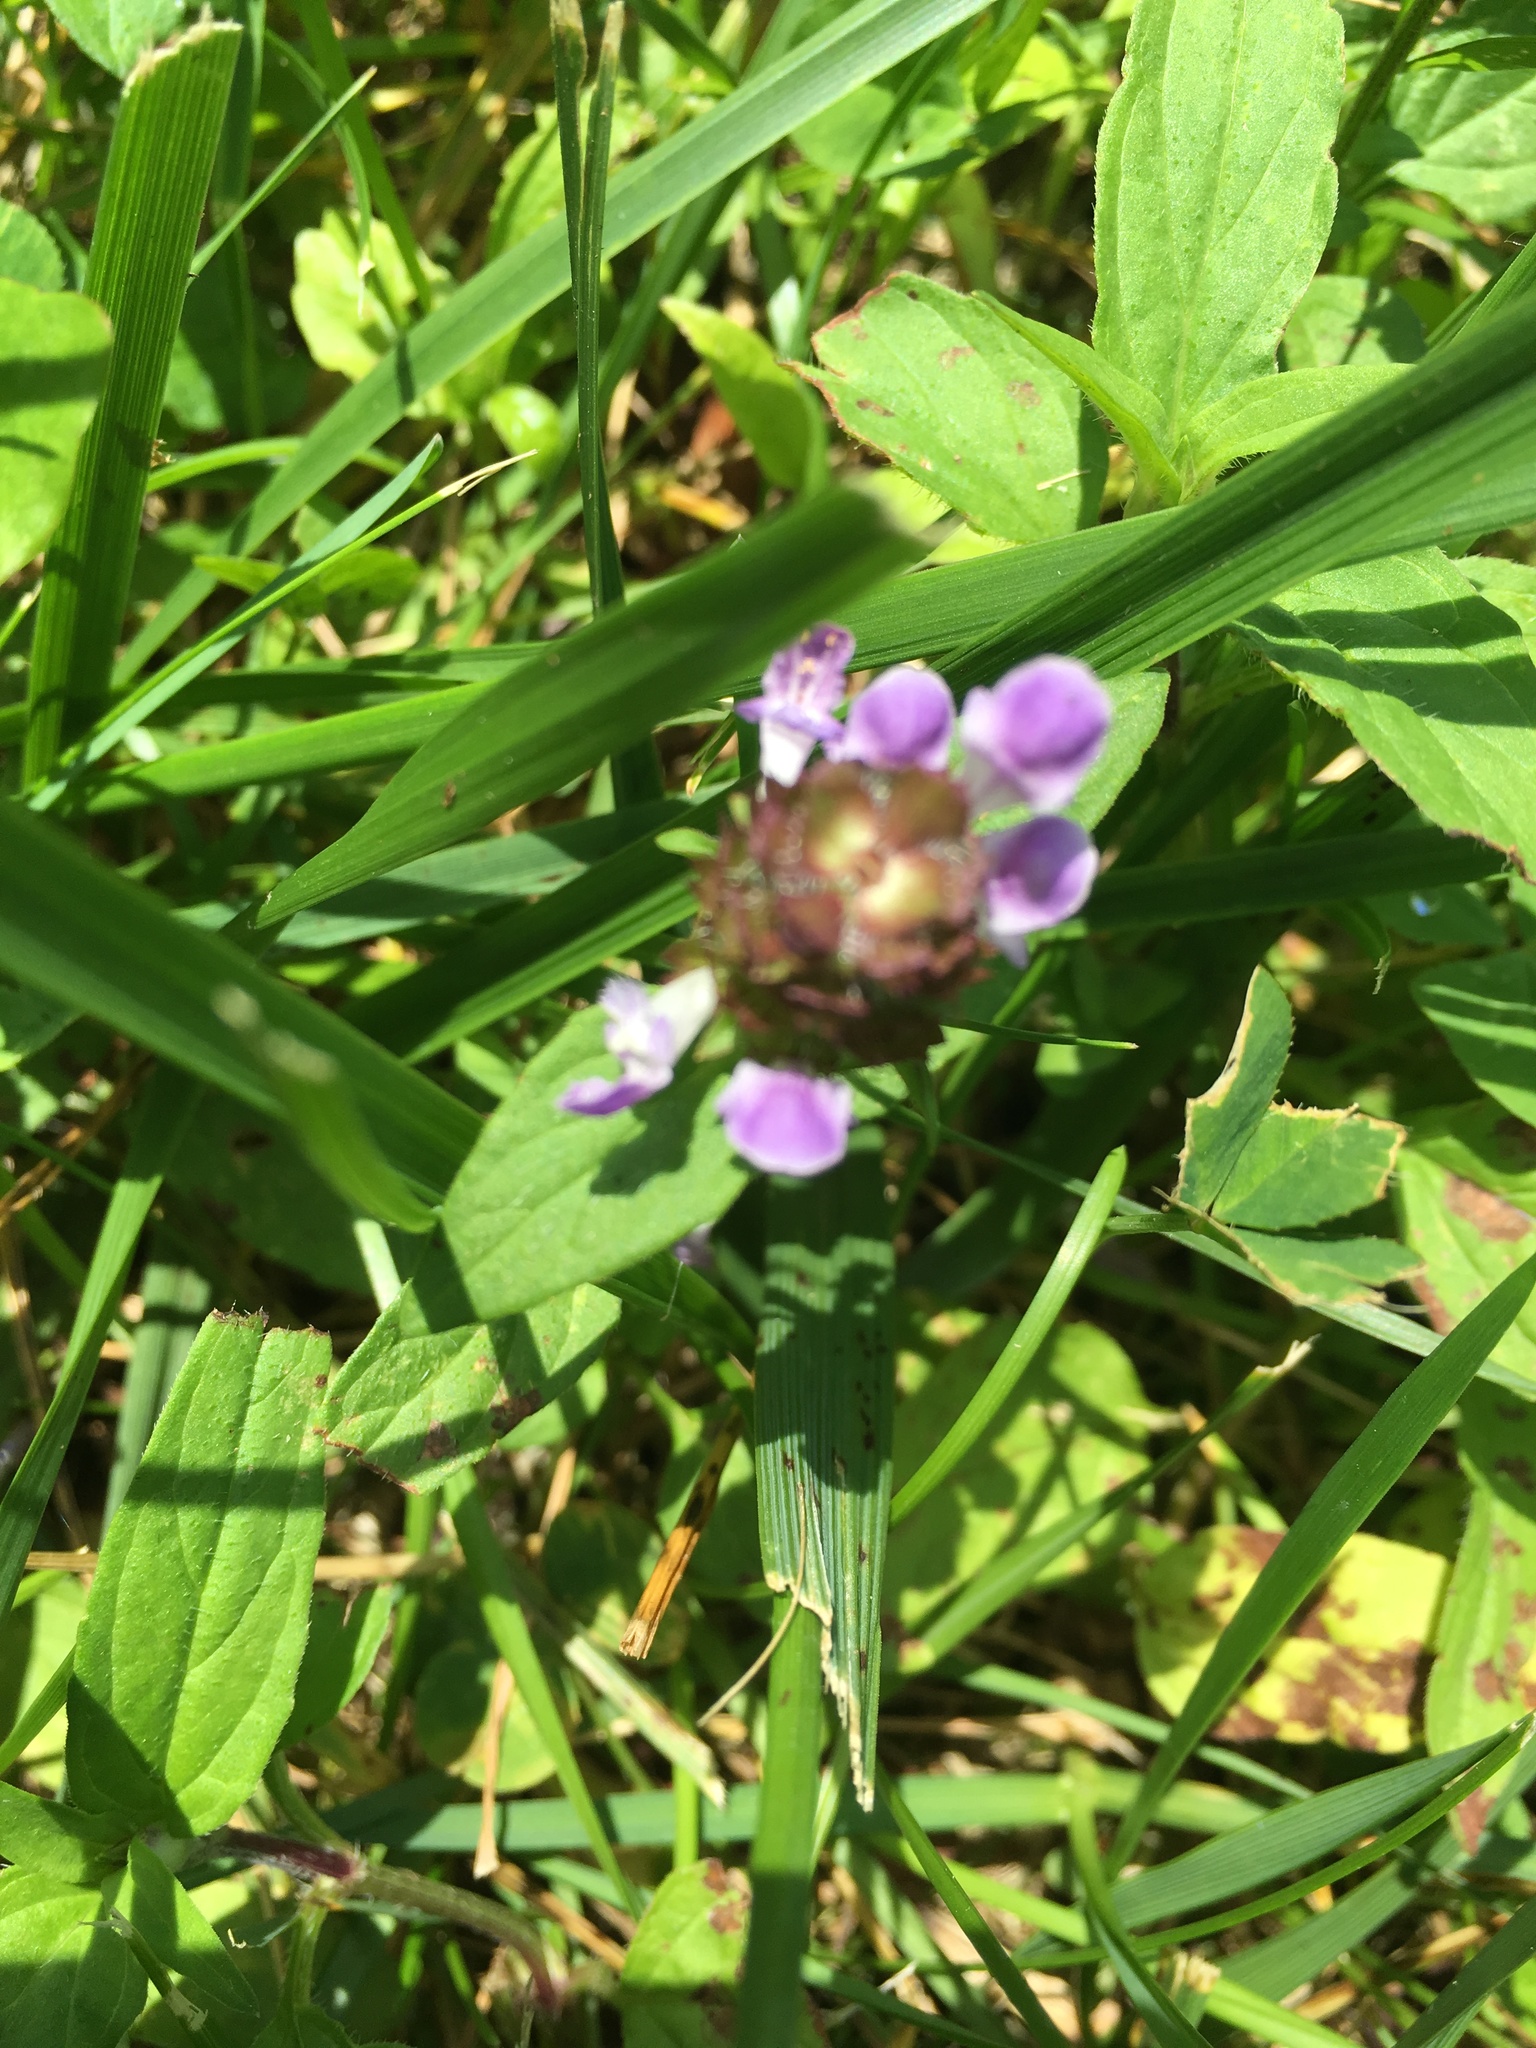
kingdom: Plantae
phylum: Tracheophyta
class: Magnoliopsida
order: Lamiales
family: Lamiaceae
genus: Prunella
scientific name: Prunella vulgaris
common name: Heal-all
